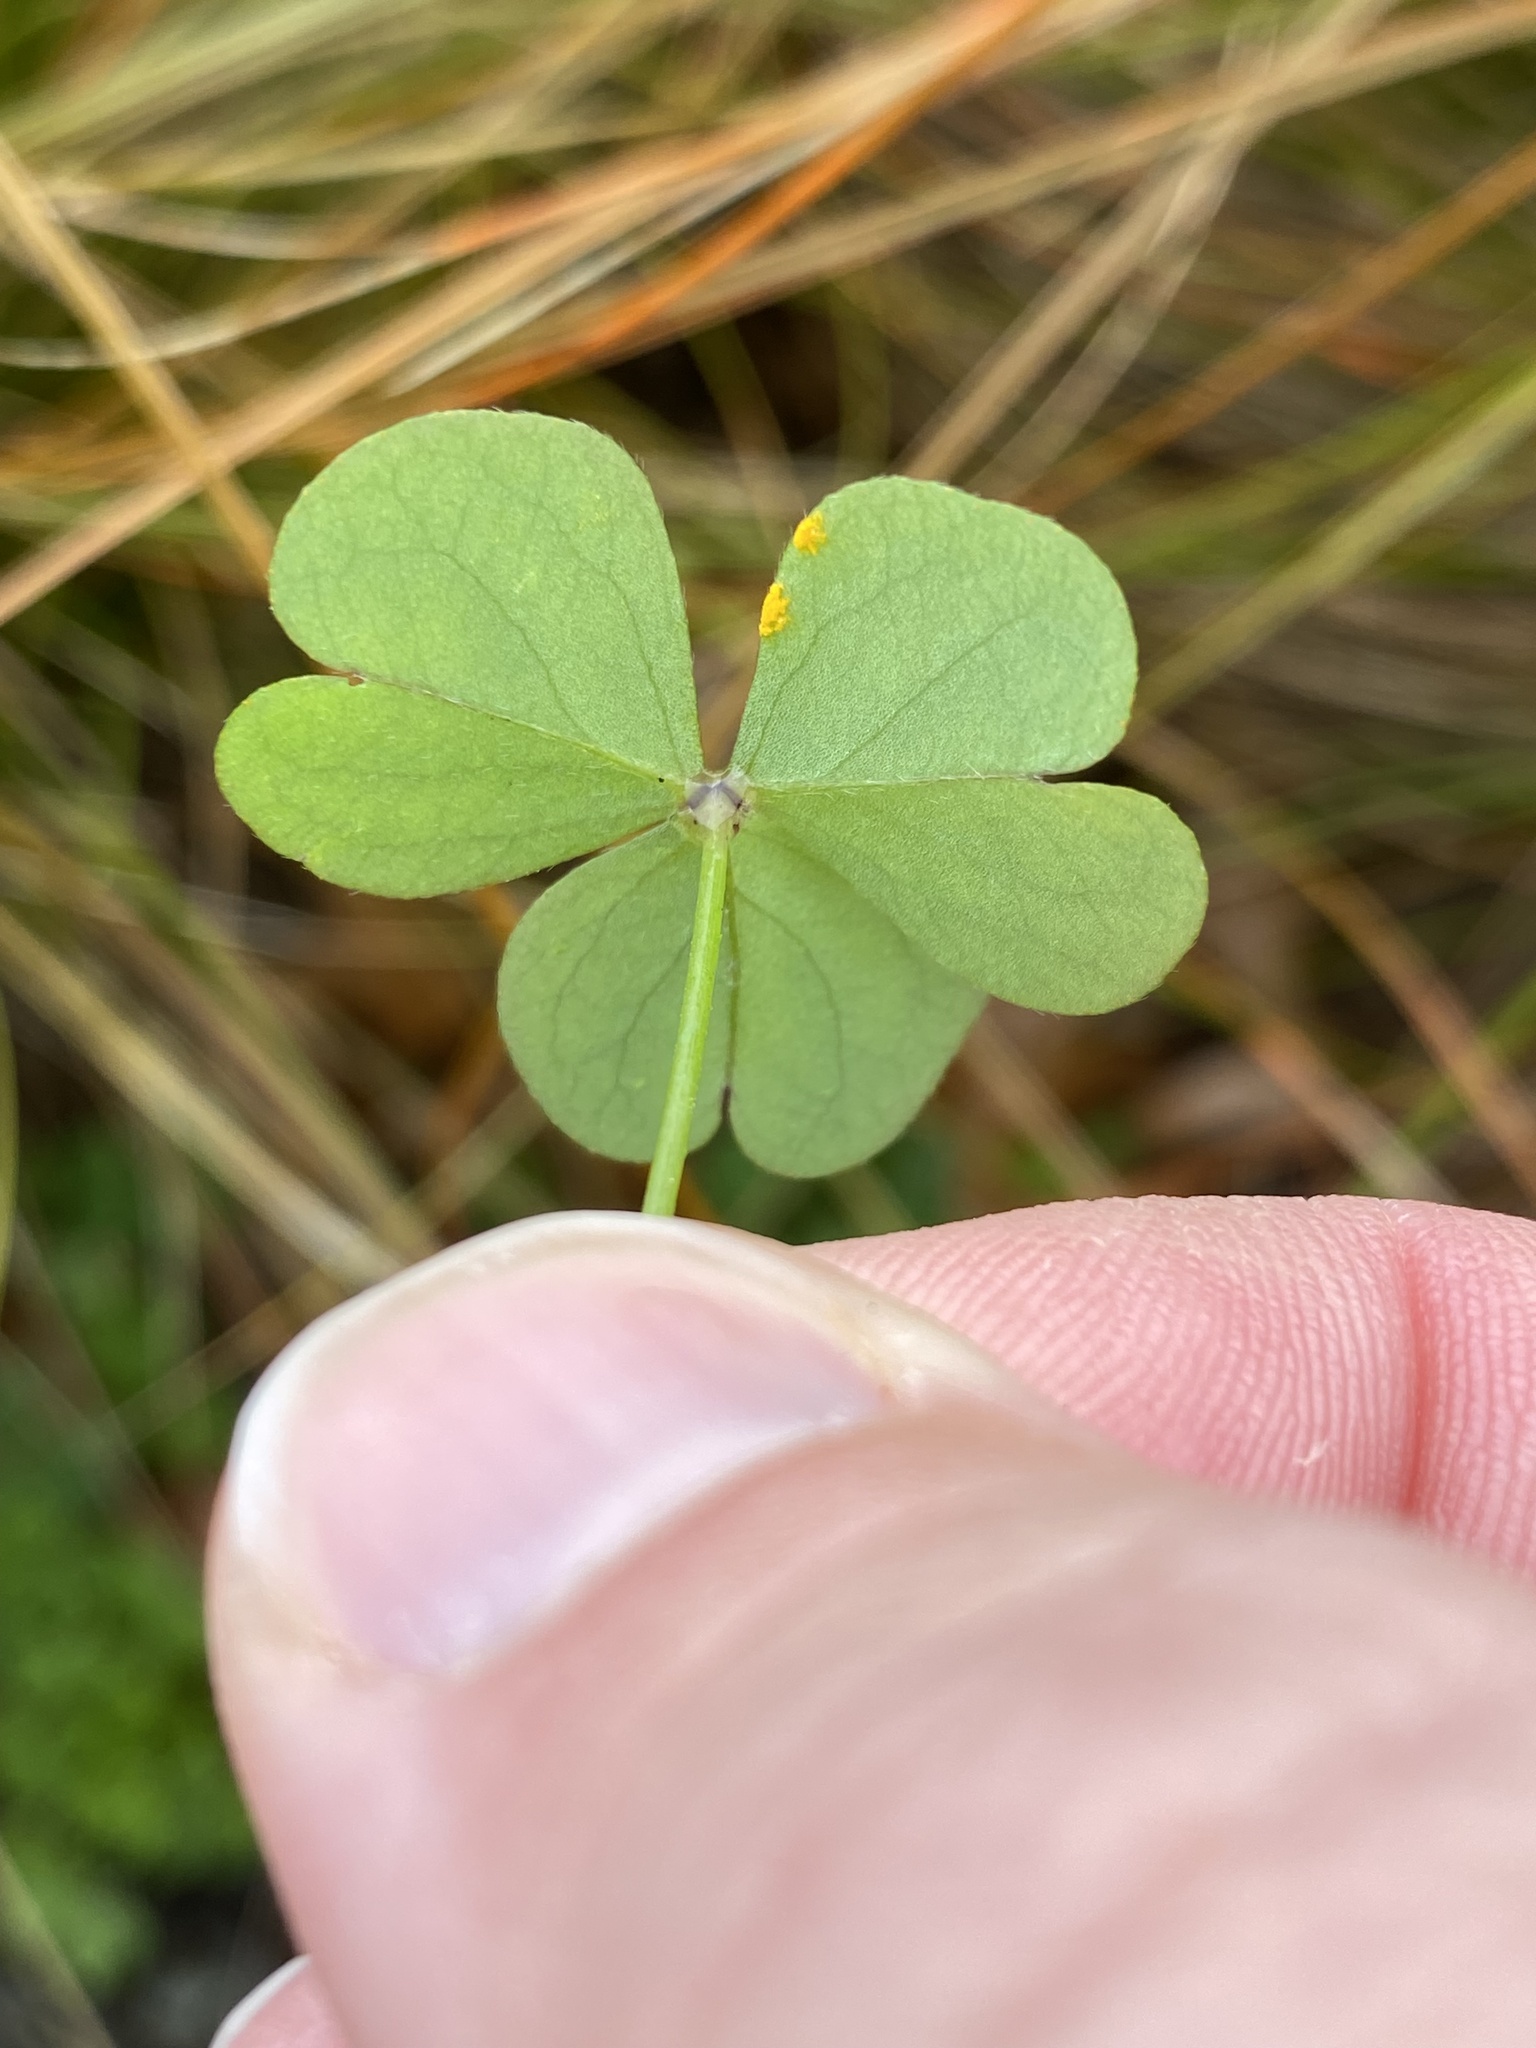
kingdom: Fungi
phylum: Basidiomycota
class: Pucciniomycetes
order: Pucciniales
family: Pucciniaceae
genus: Puccinia
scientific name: Puccinia oxalidis
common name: Oxalis rust
